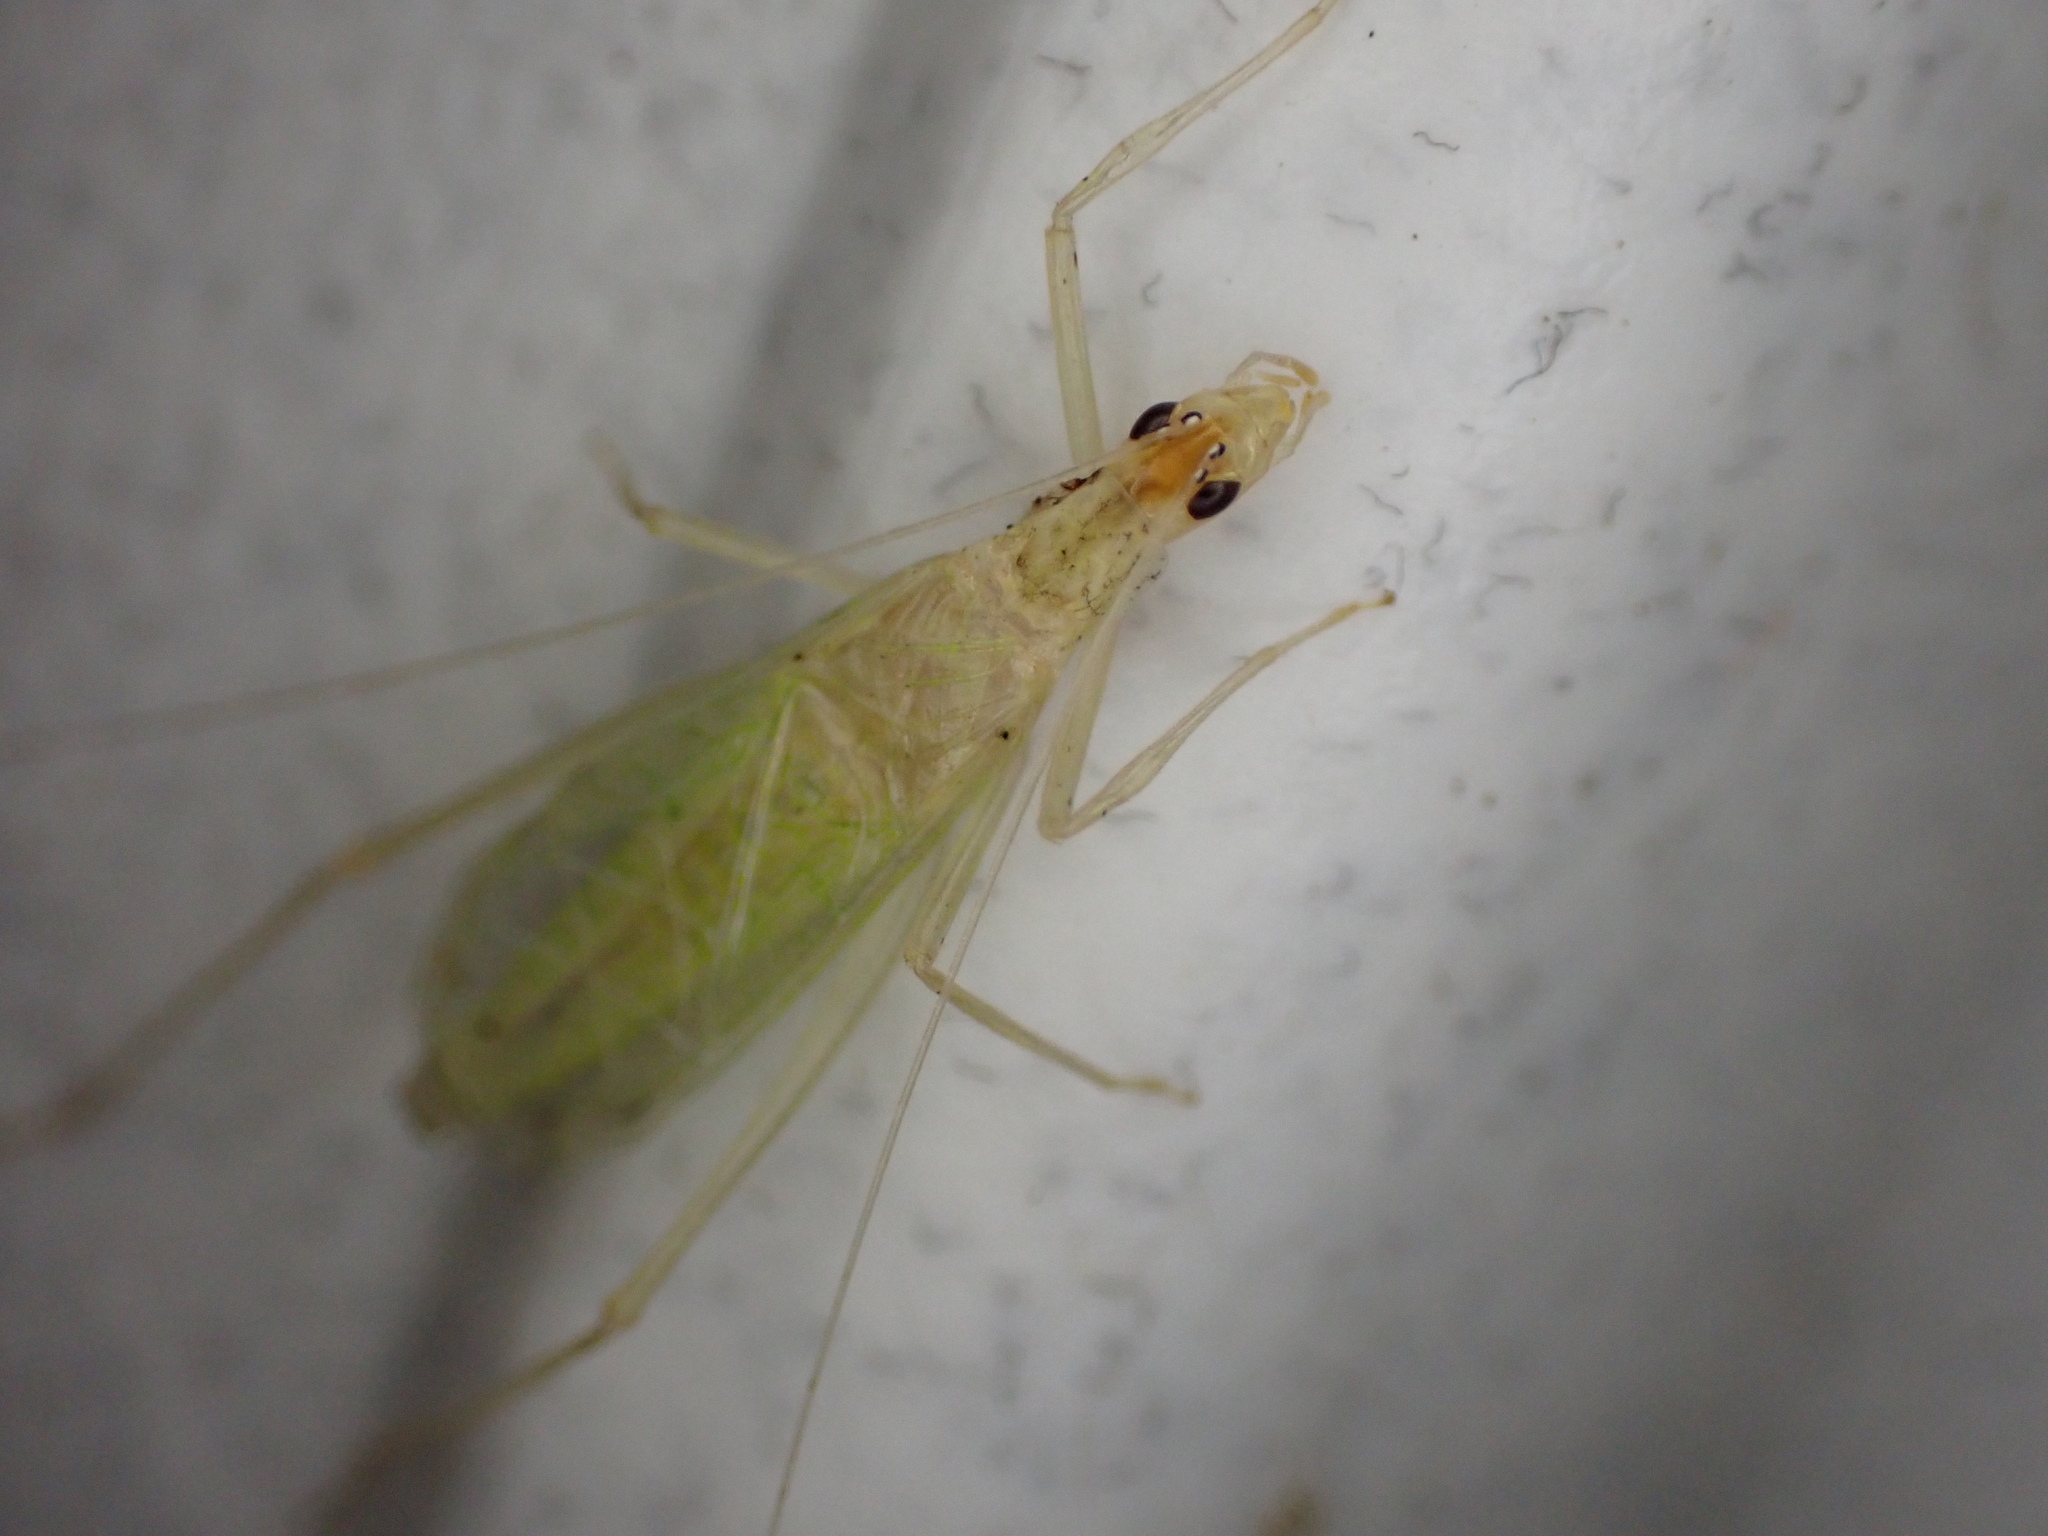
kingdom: Animalia
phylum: Arthropoda
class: Insecta
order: Orthoptera
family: Gryllidae
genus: Oecanthus
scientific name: Oecanthus niveus
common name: Narrow-winged tree cricket
